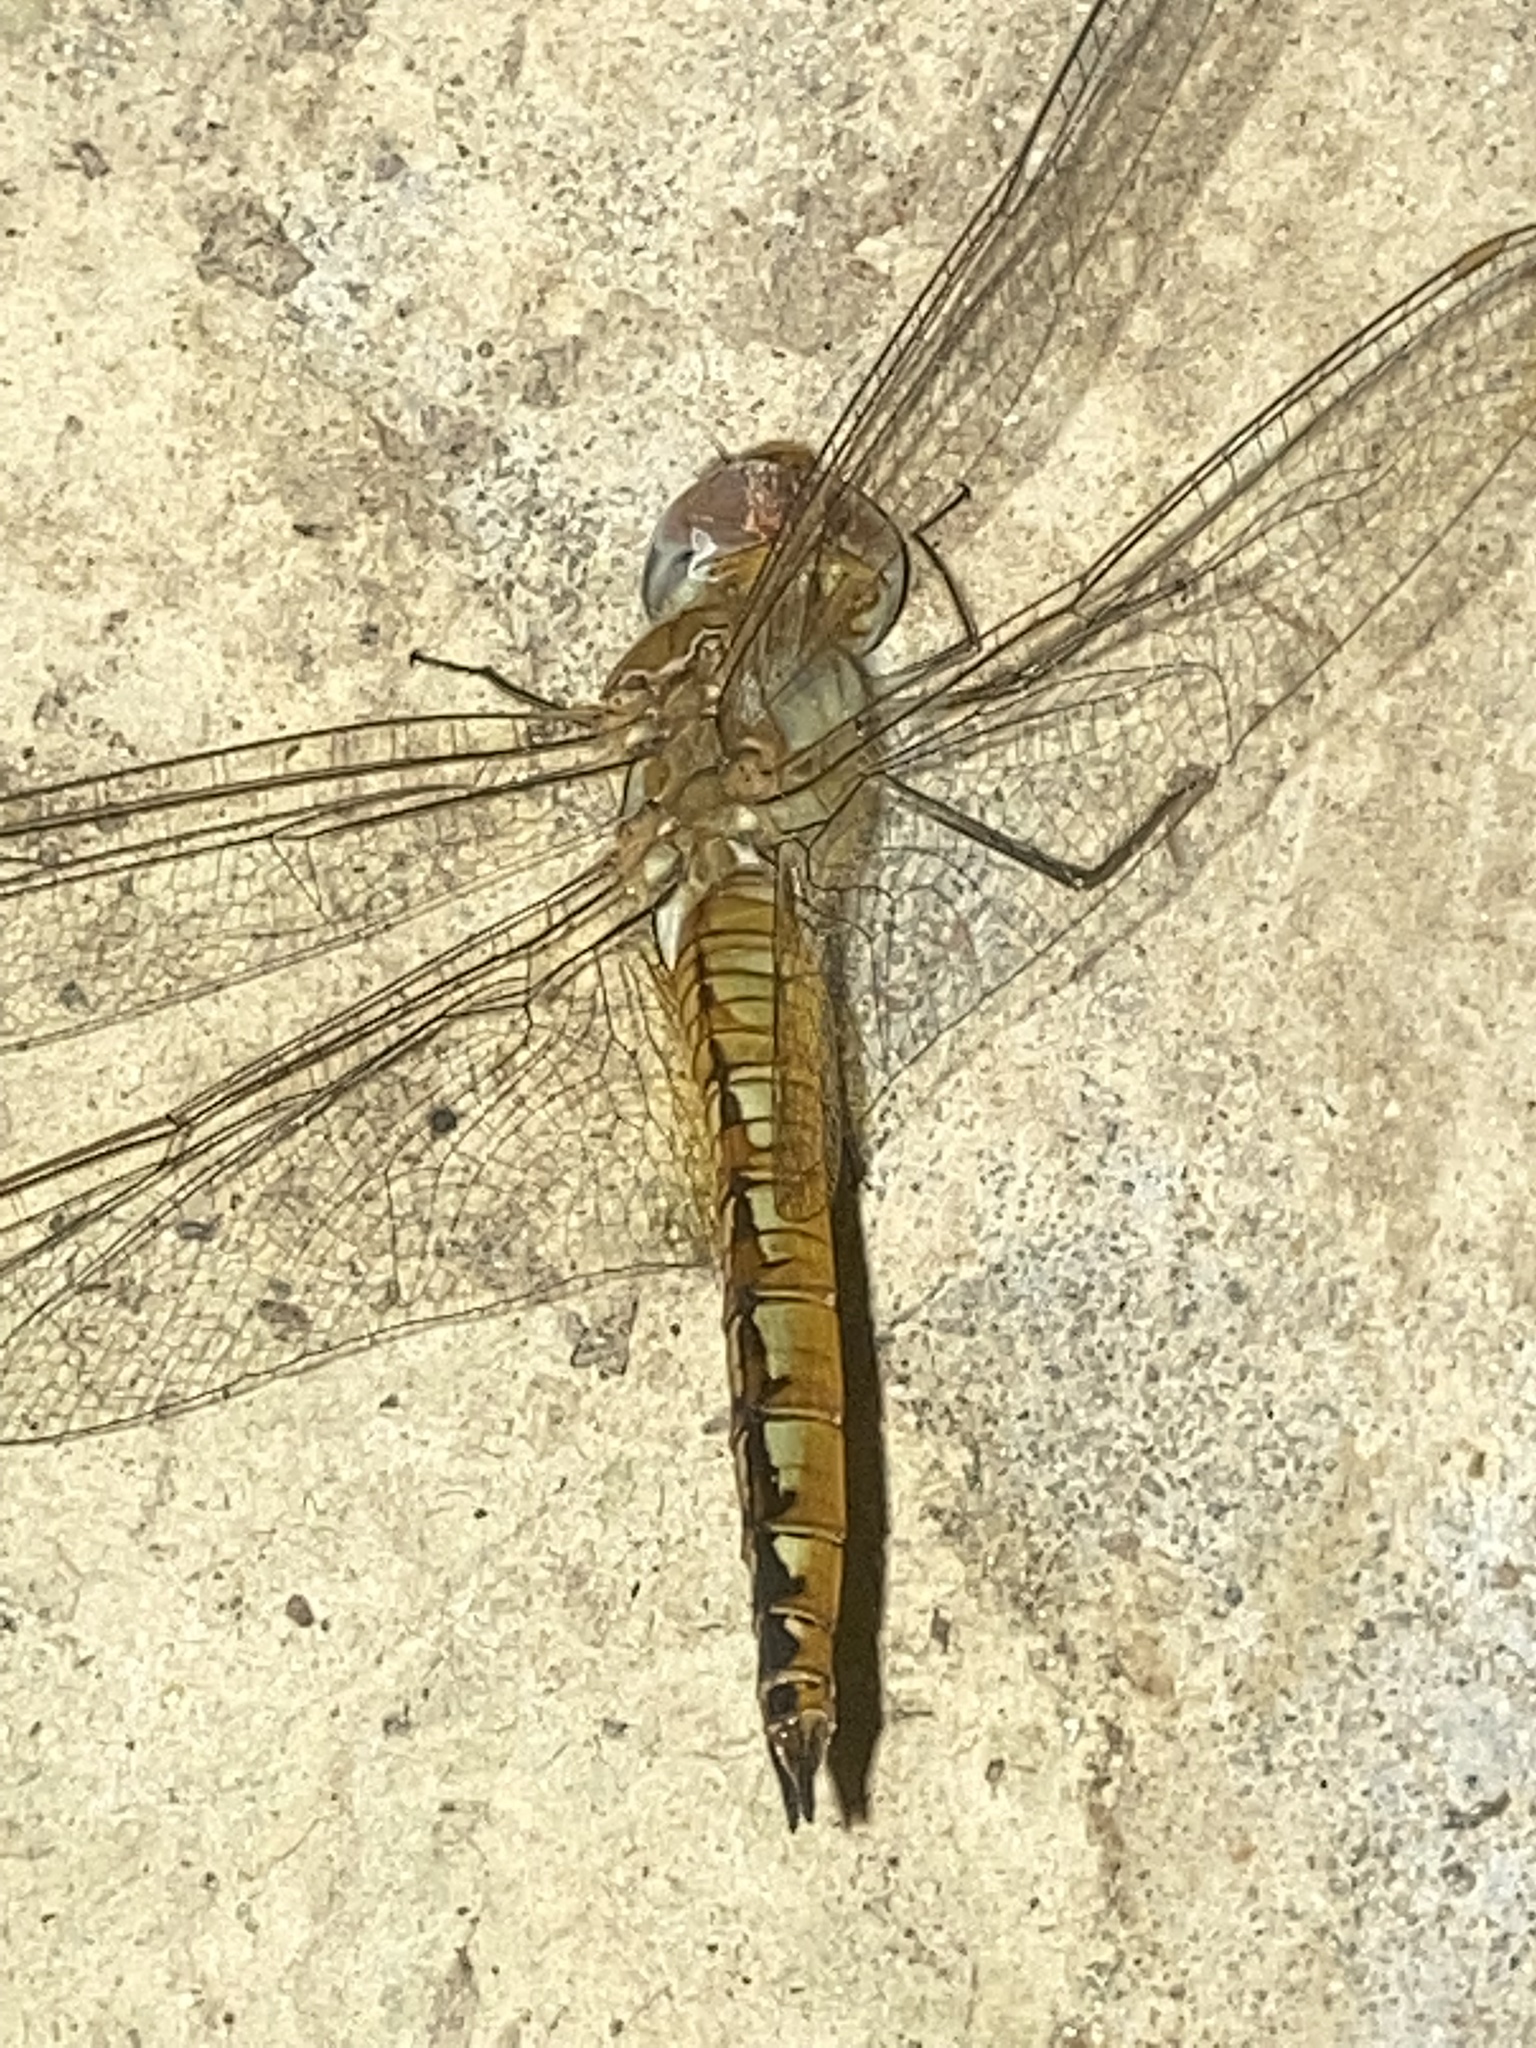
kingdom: Animalia
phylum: Arthropoda
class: Insecta
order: Odonata
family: Libellulidae
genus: Pantala
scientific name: Pantala flavescens
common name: Wandering glider
